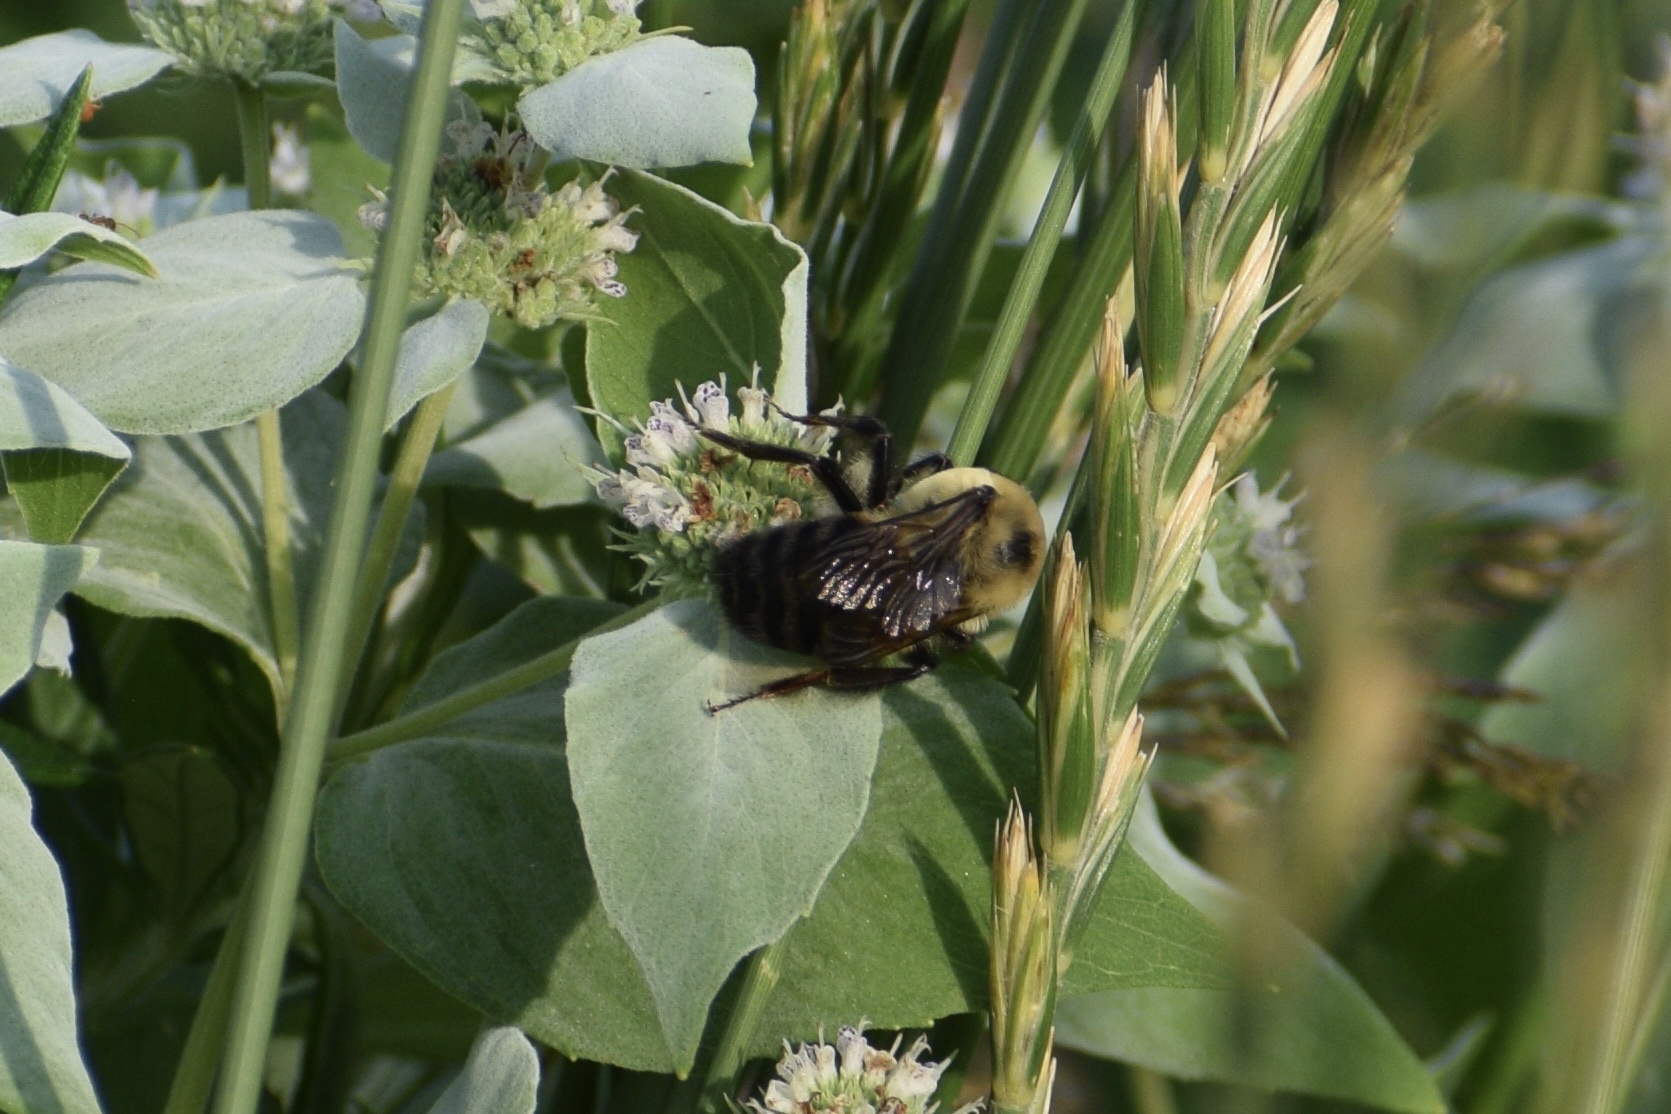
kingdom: Animalia
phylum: Arthropoda
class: Insecta
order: Hymenoptera
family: Apidae
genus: Bombus
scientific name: Bombus griseocollis
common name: Brown-belted bumble bee
